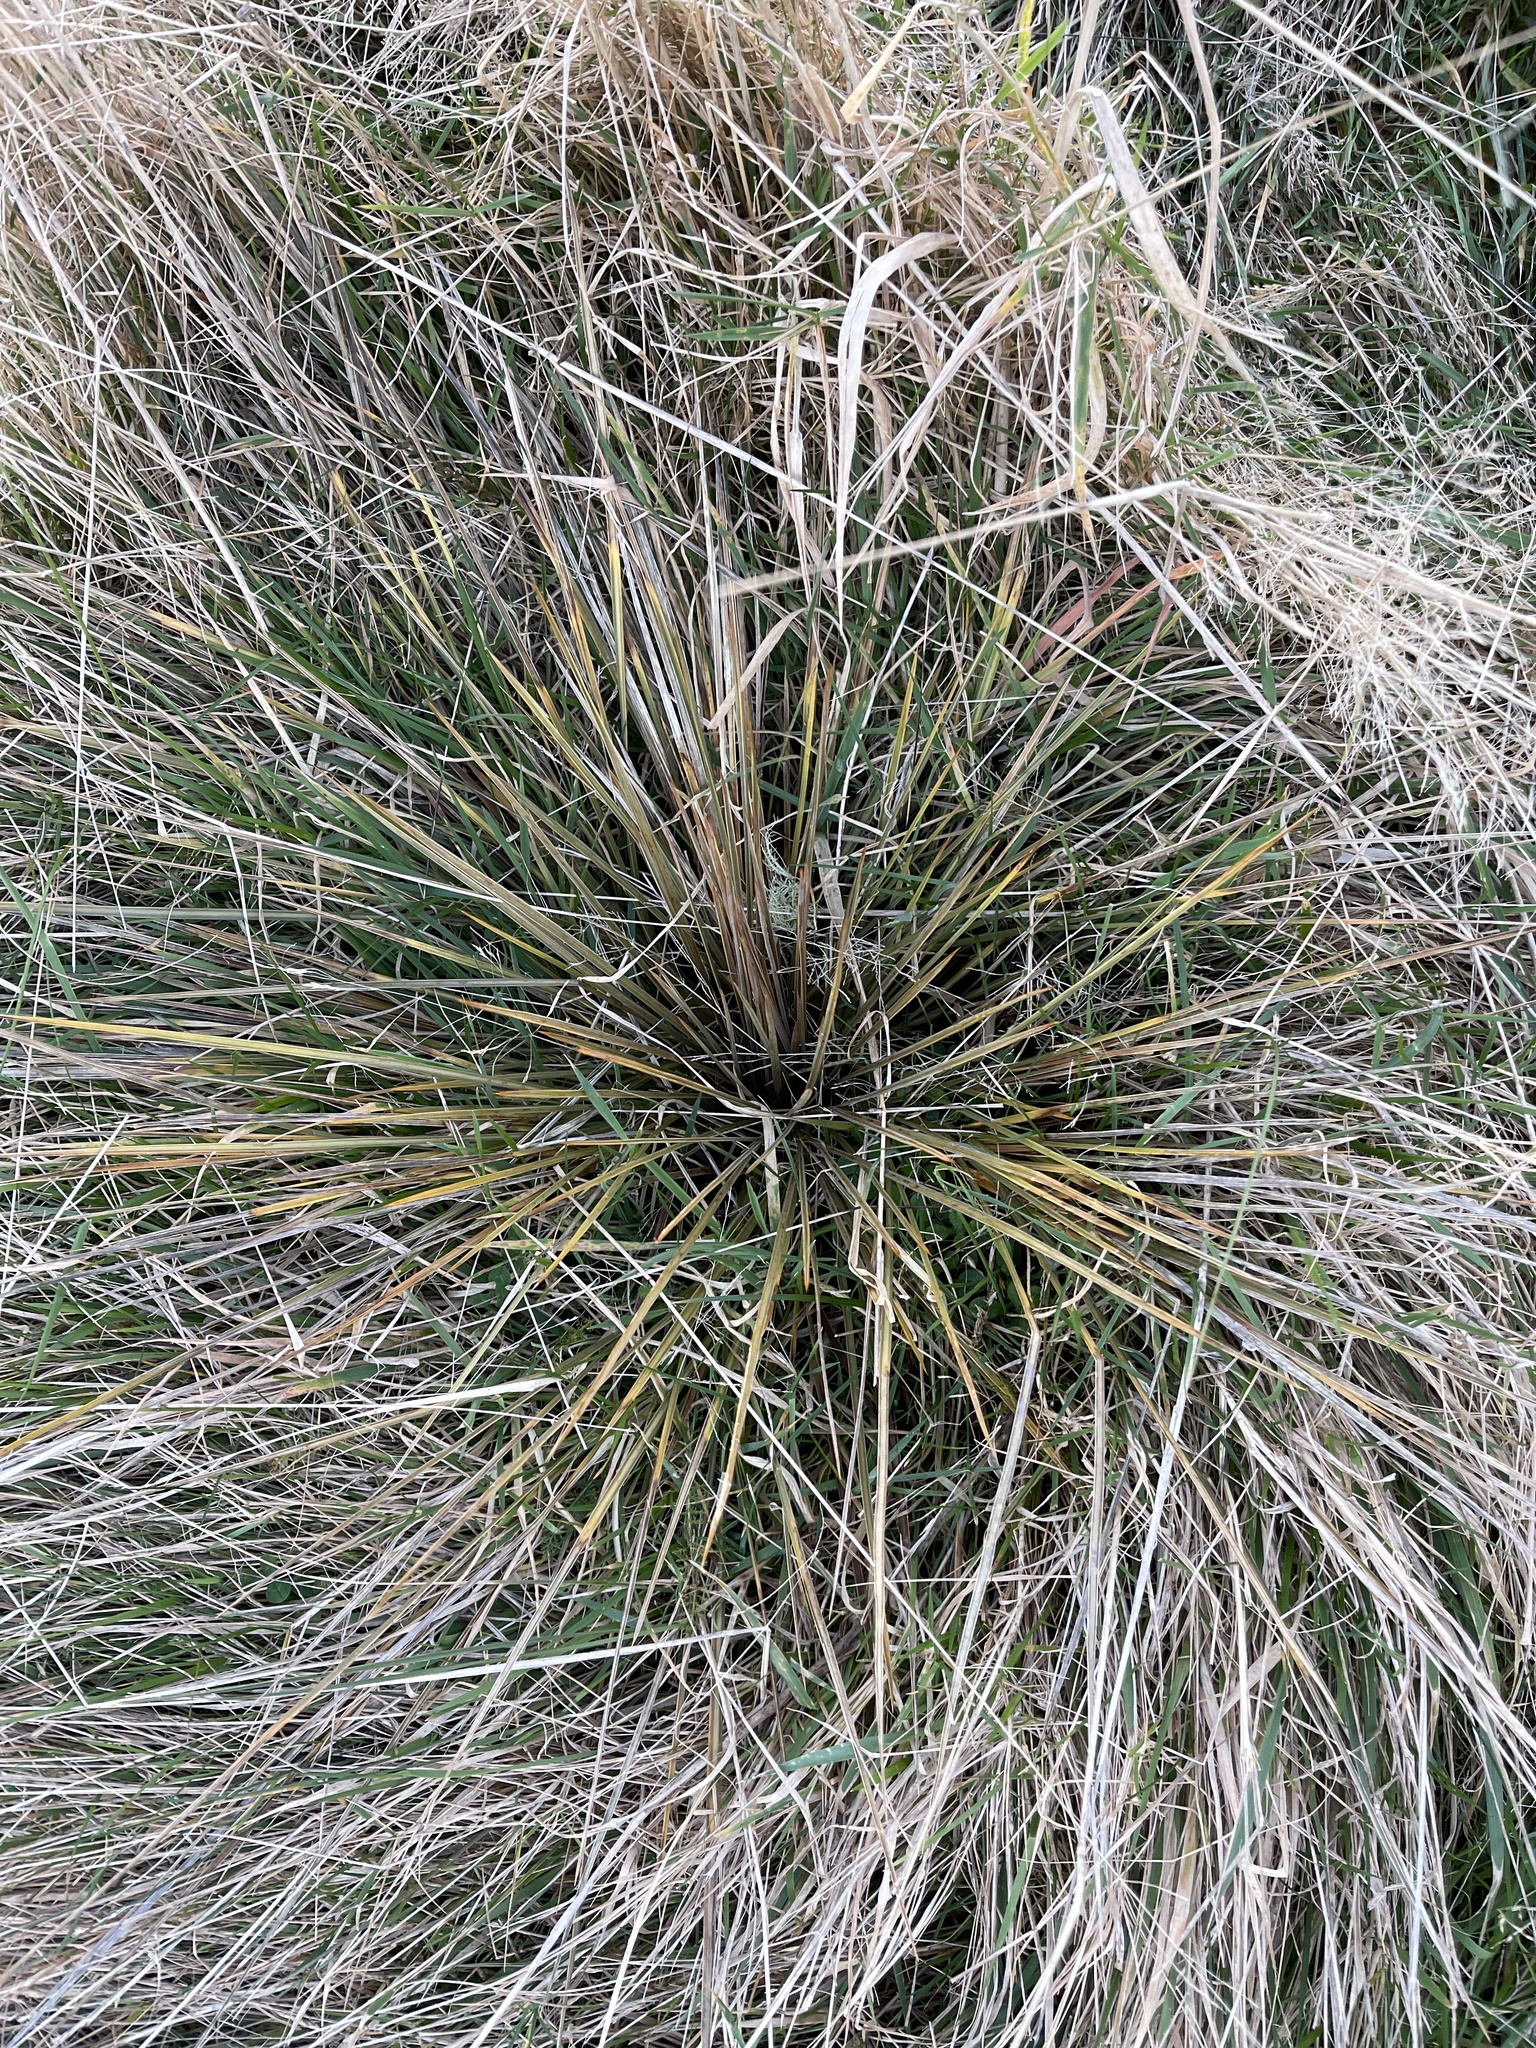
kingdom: Plantae
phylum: Tracheophyta
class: Magnoliopsida
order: Apiales
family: Apiaceae
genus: Aciphylla
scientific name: Aciphylla subflabellata
